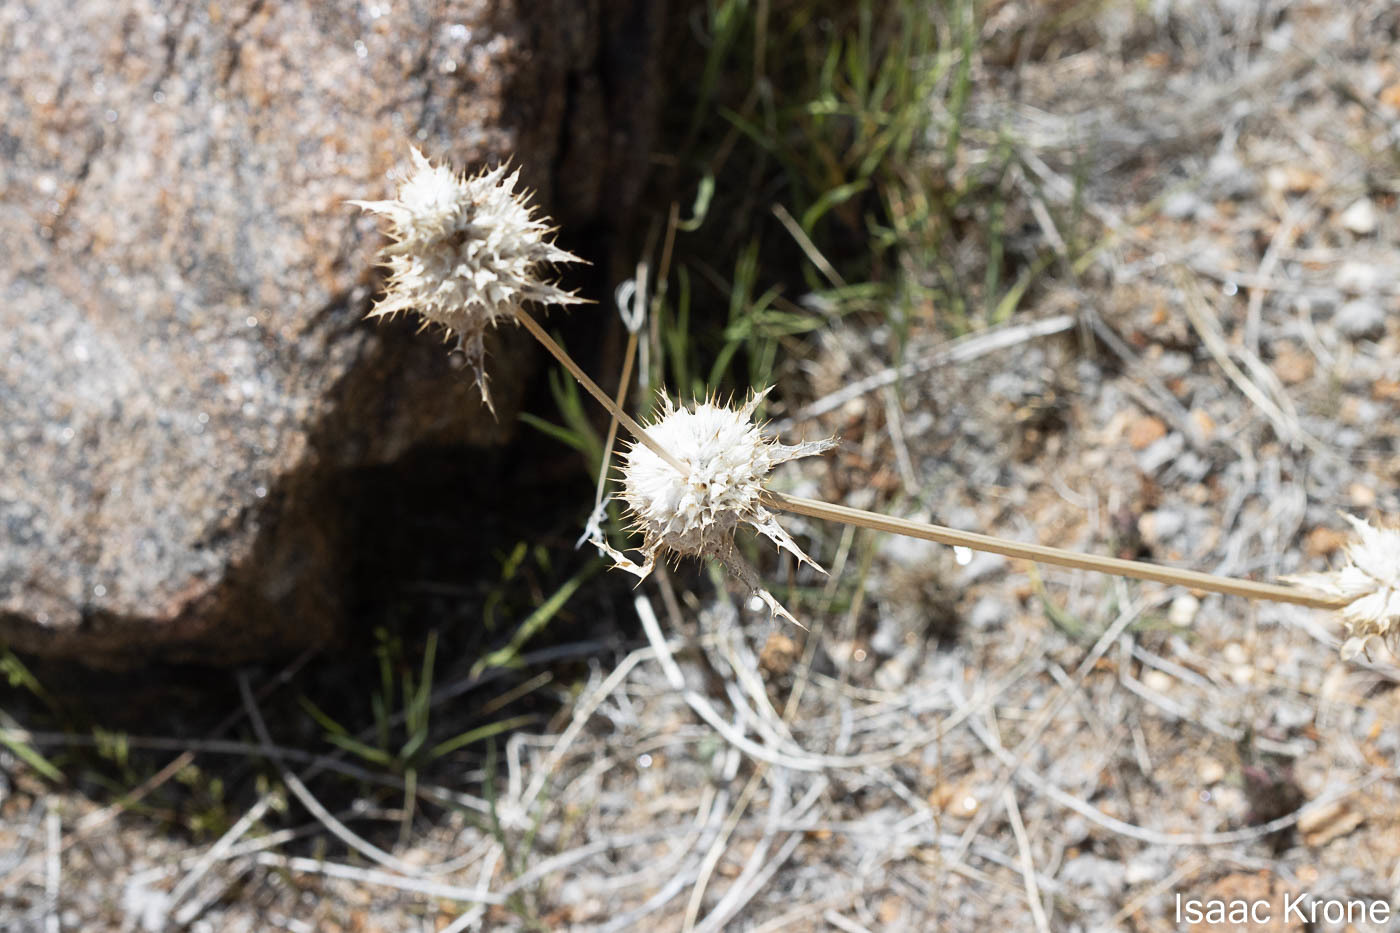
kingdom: Plantae
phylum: Tracheophyta
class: Magnoliopsida
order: Lamiales
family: Lamiaceae
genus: Salvia
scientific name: Salvia carduacea
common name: Thistle sage
